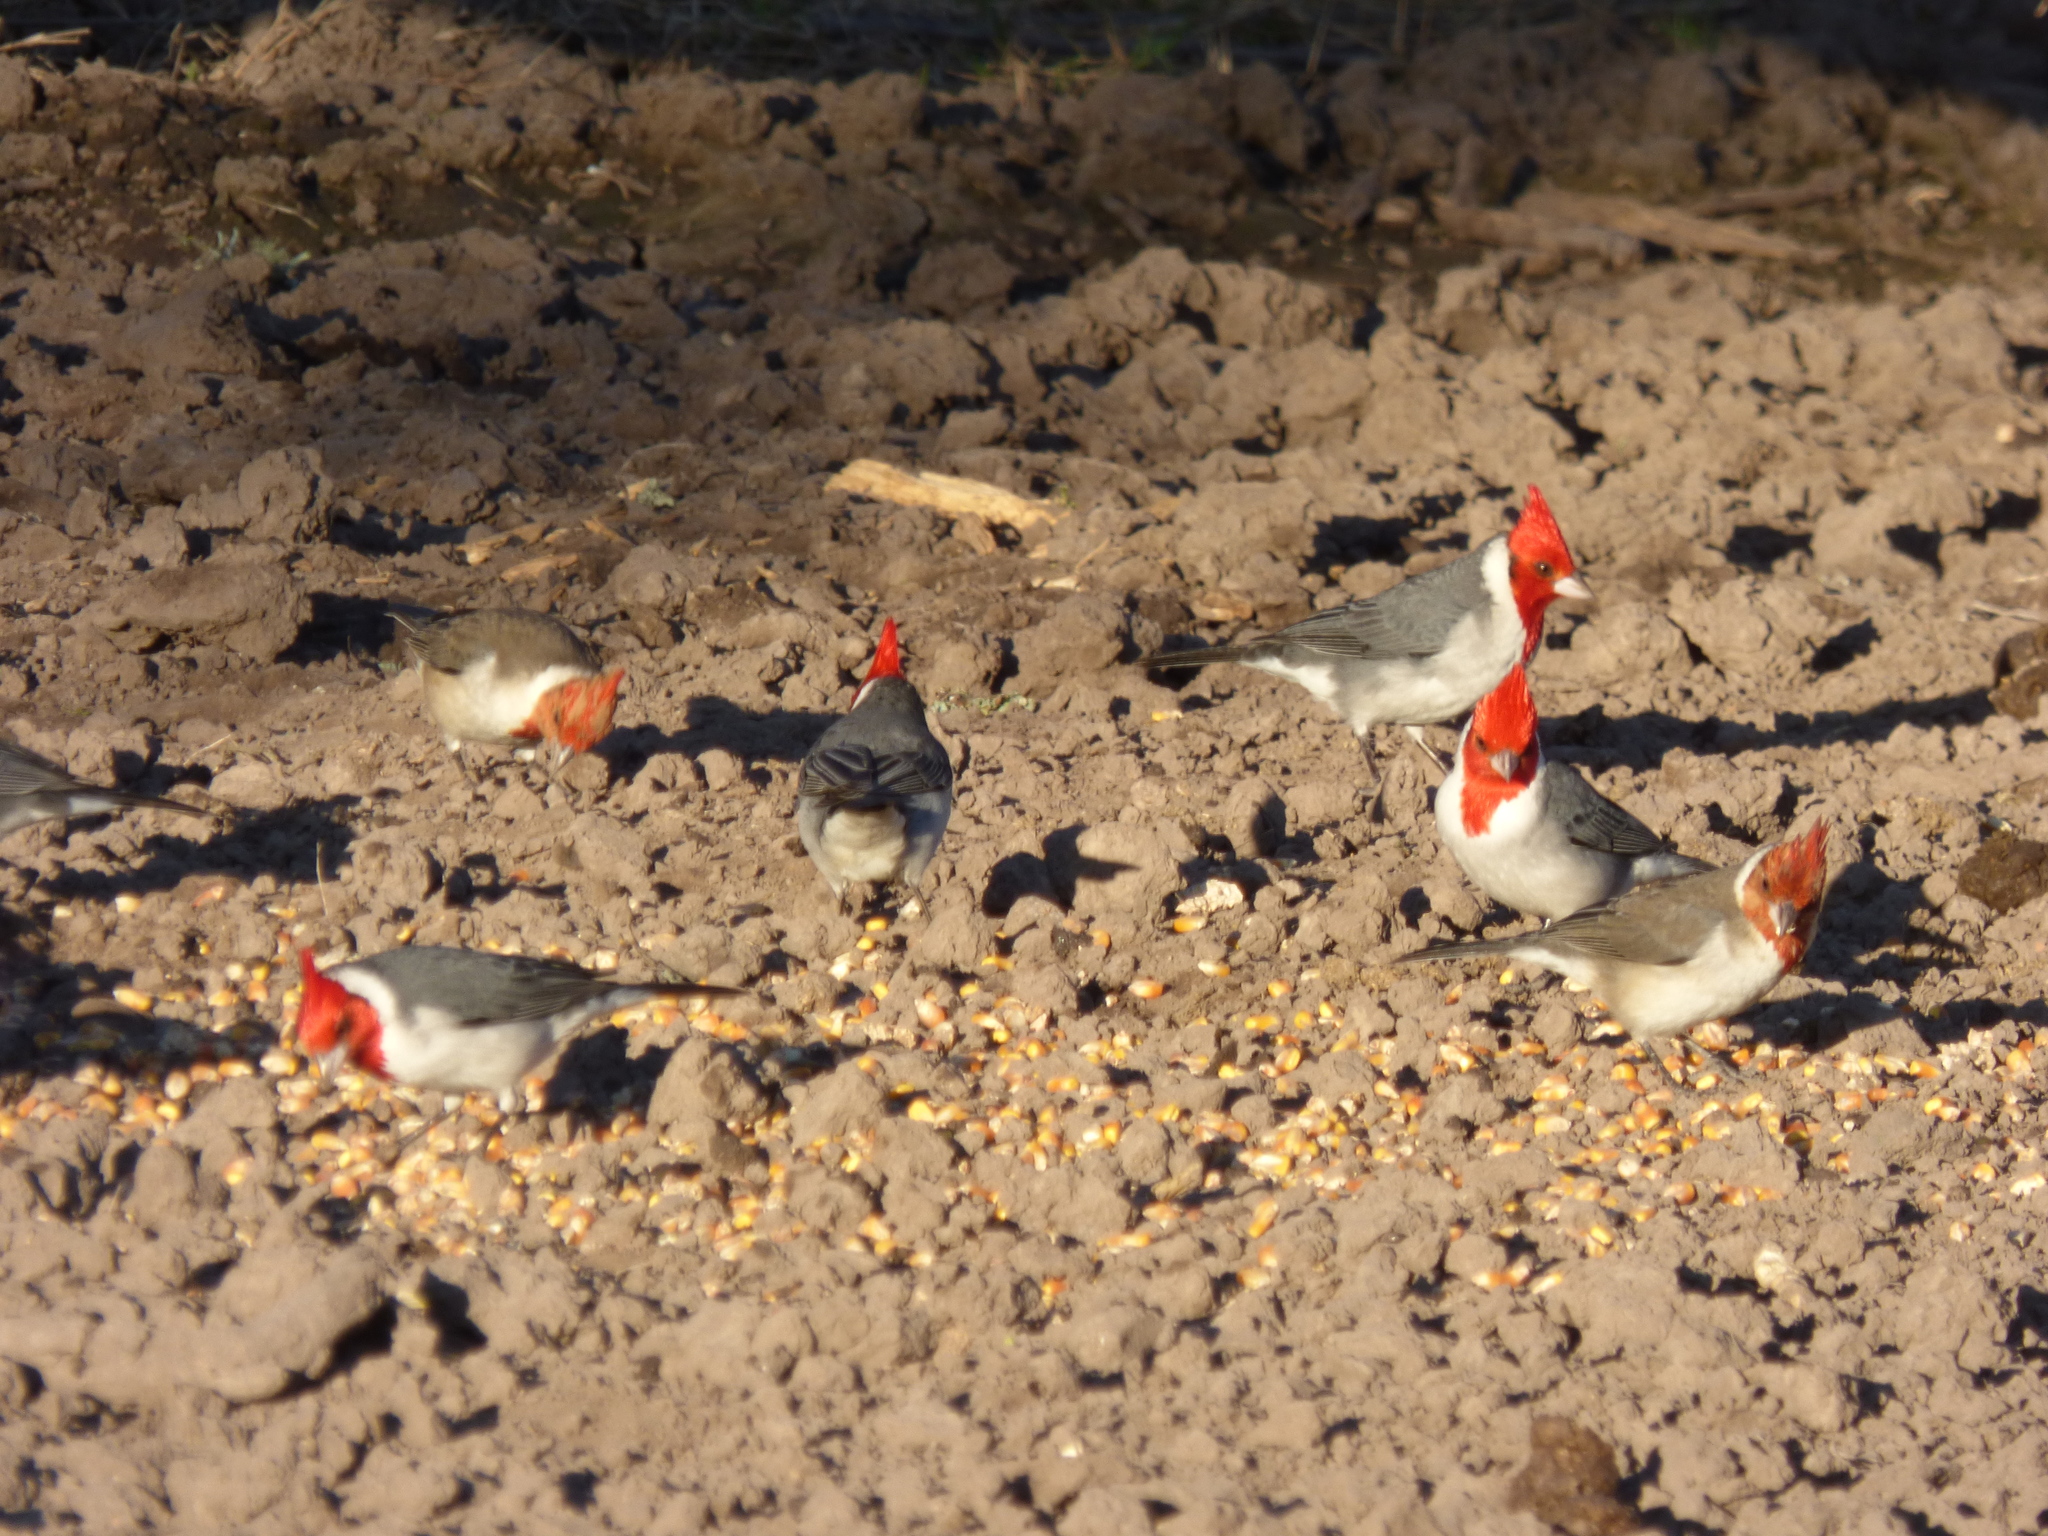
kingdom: Animalia
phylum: Chordata
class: Aves
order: Passeriformes
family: Thraupidae
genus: Paroaria
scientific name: Paroaria coronata
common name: Red-crested cardinal
